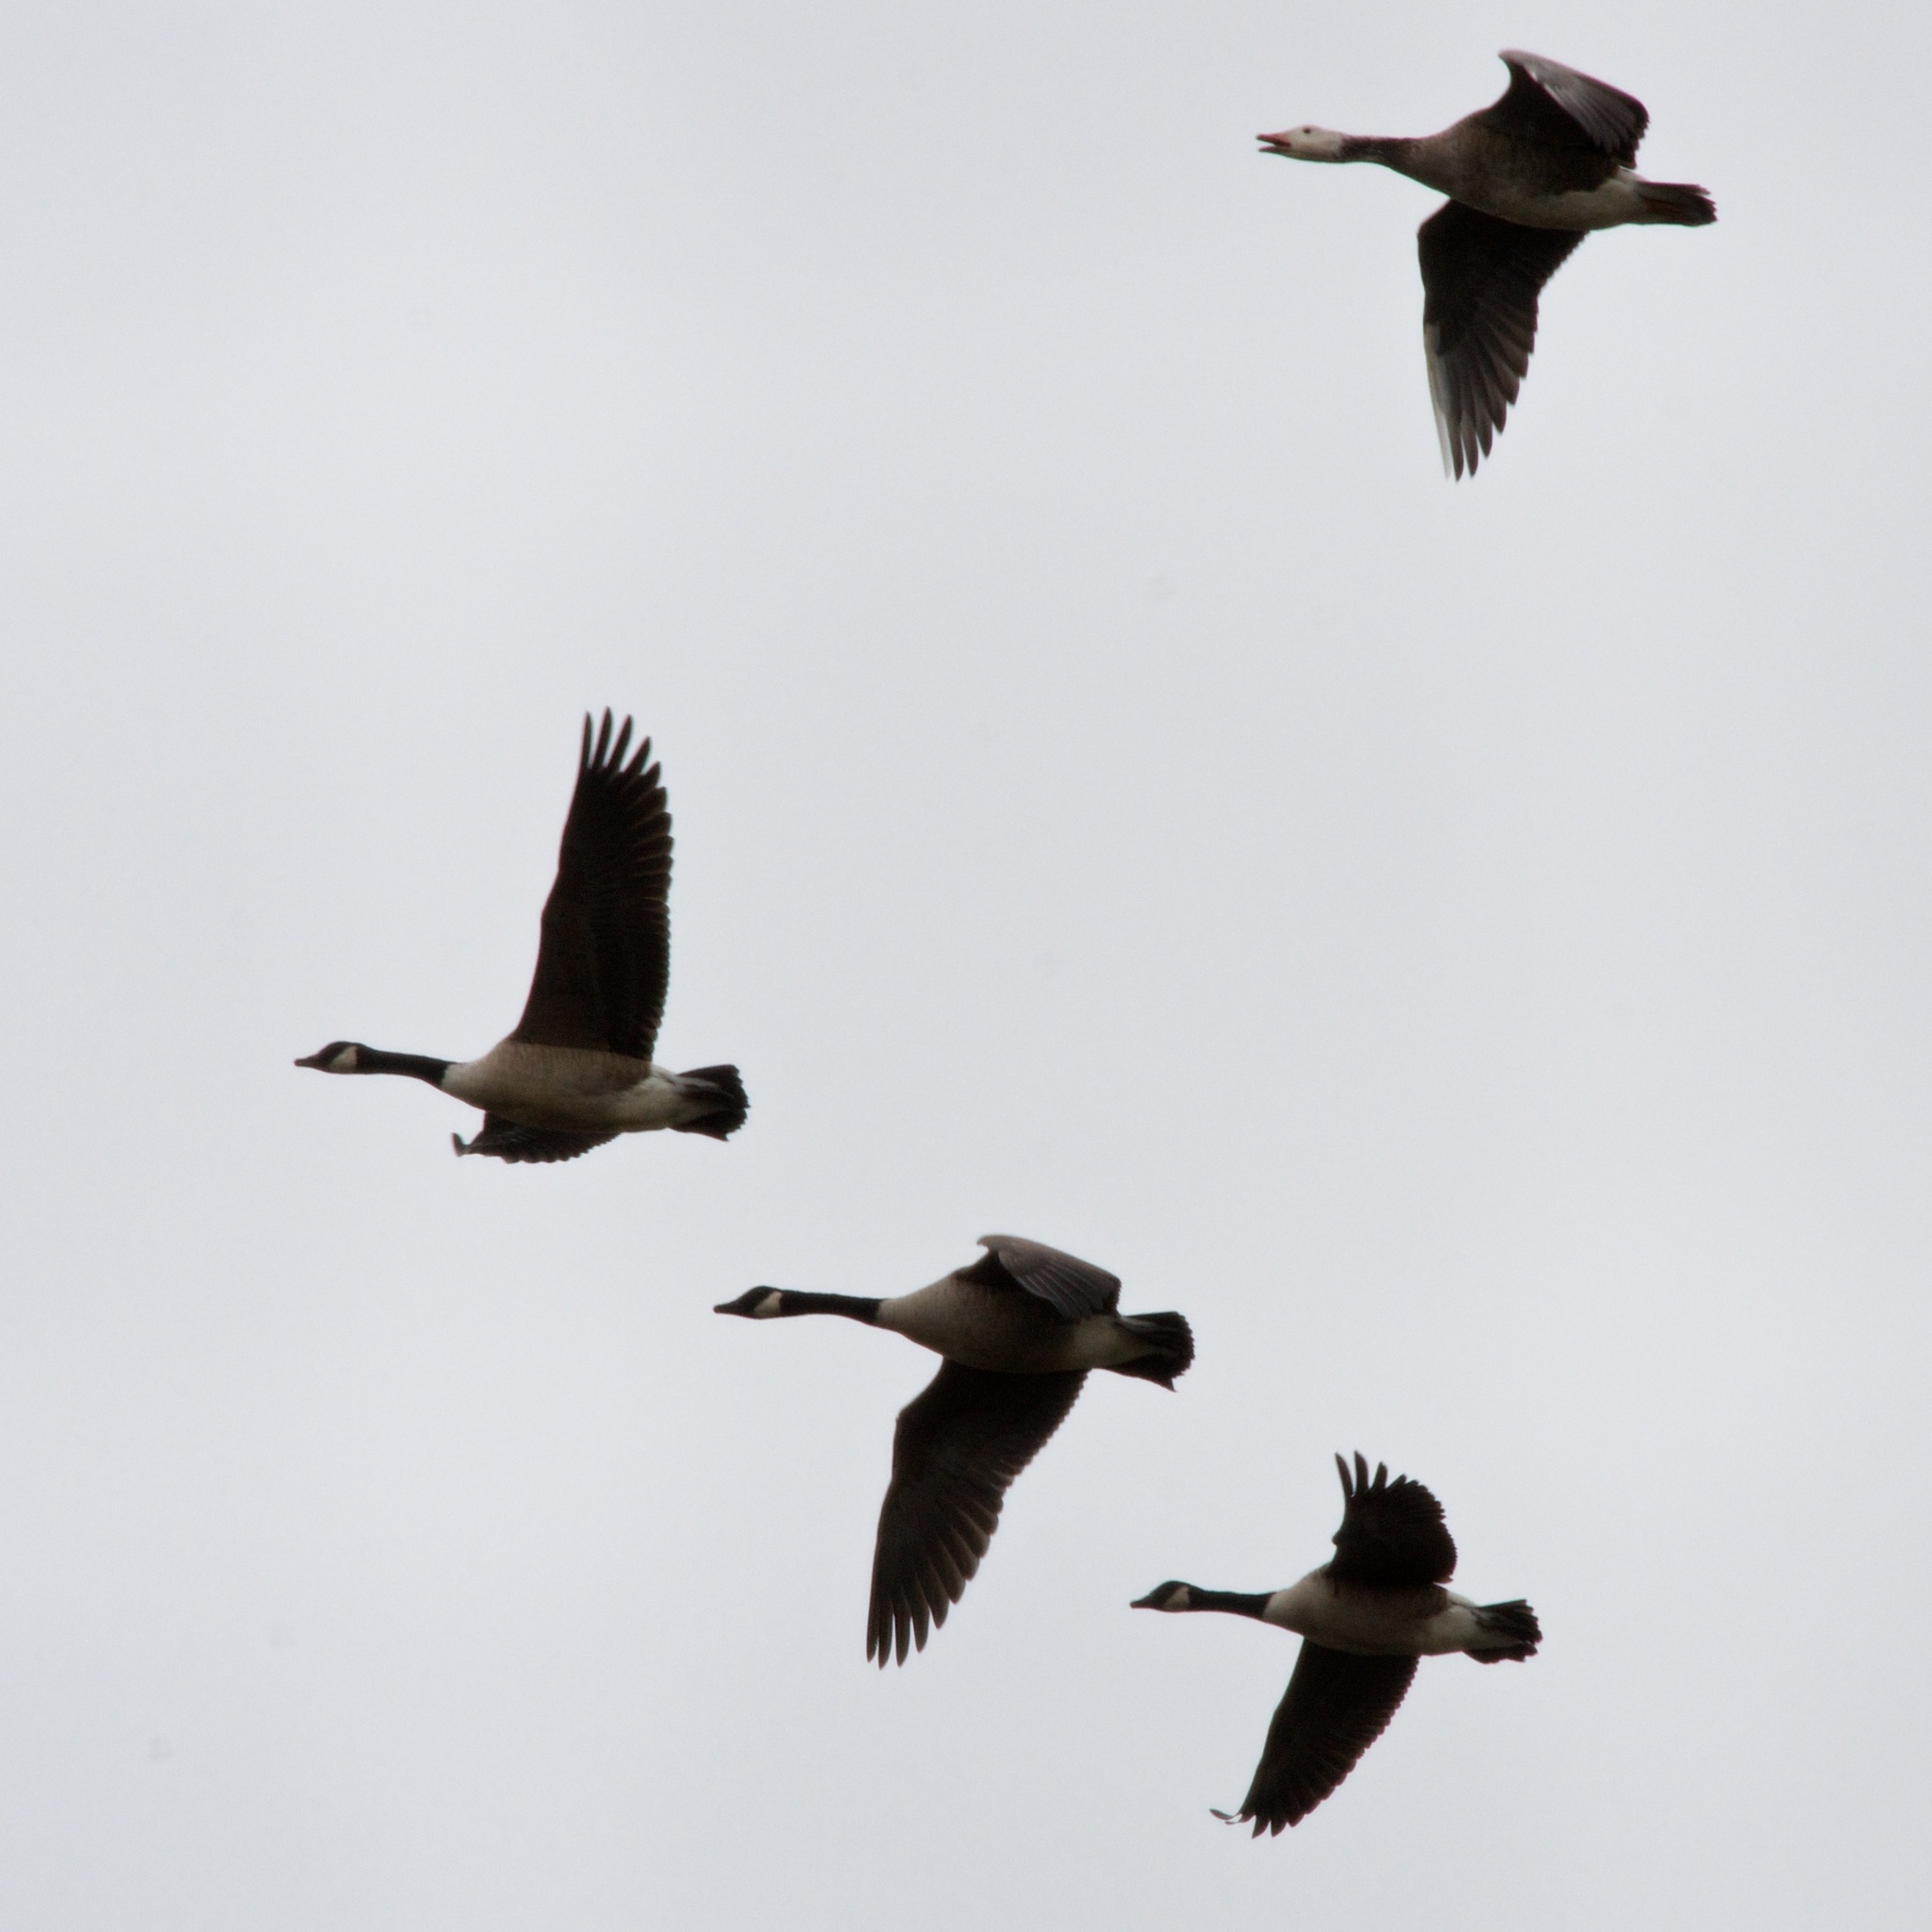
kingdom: Animalia
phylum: Chordata
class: Aves
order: Anseriformes
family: Anatidae
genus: Branta
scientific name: Branta canadensis
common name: Canada goose
